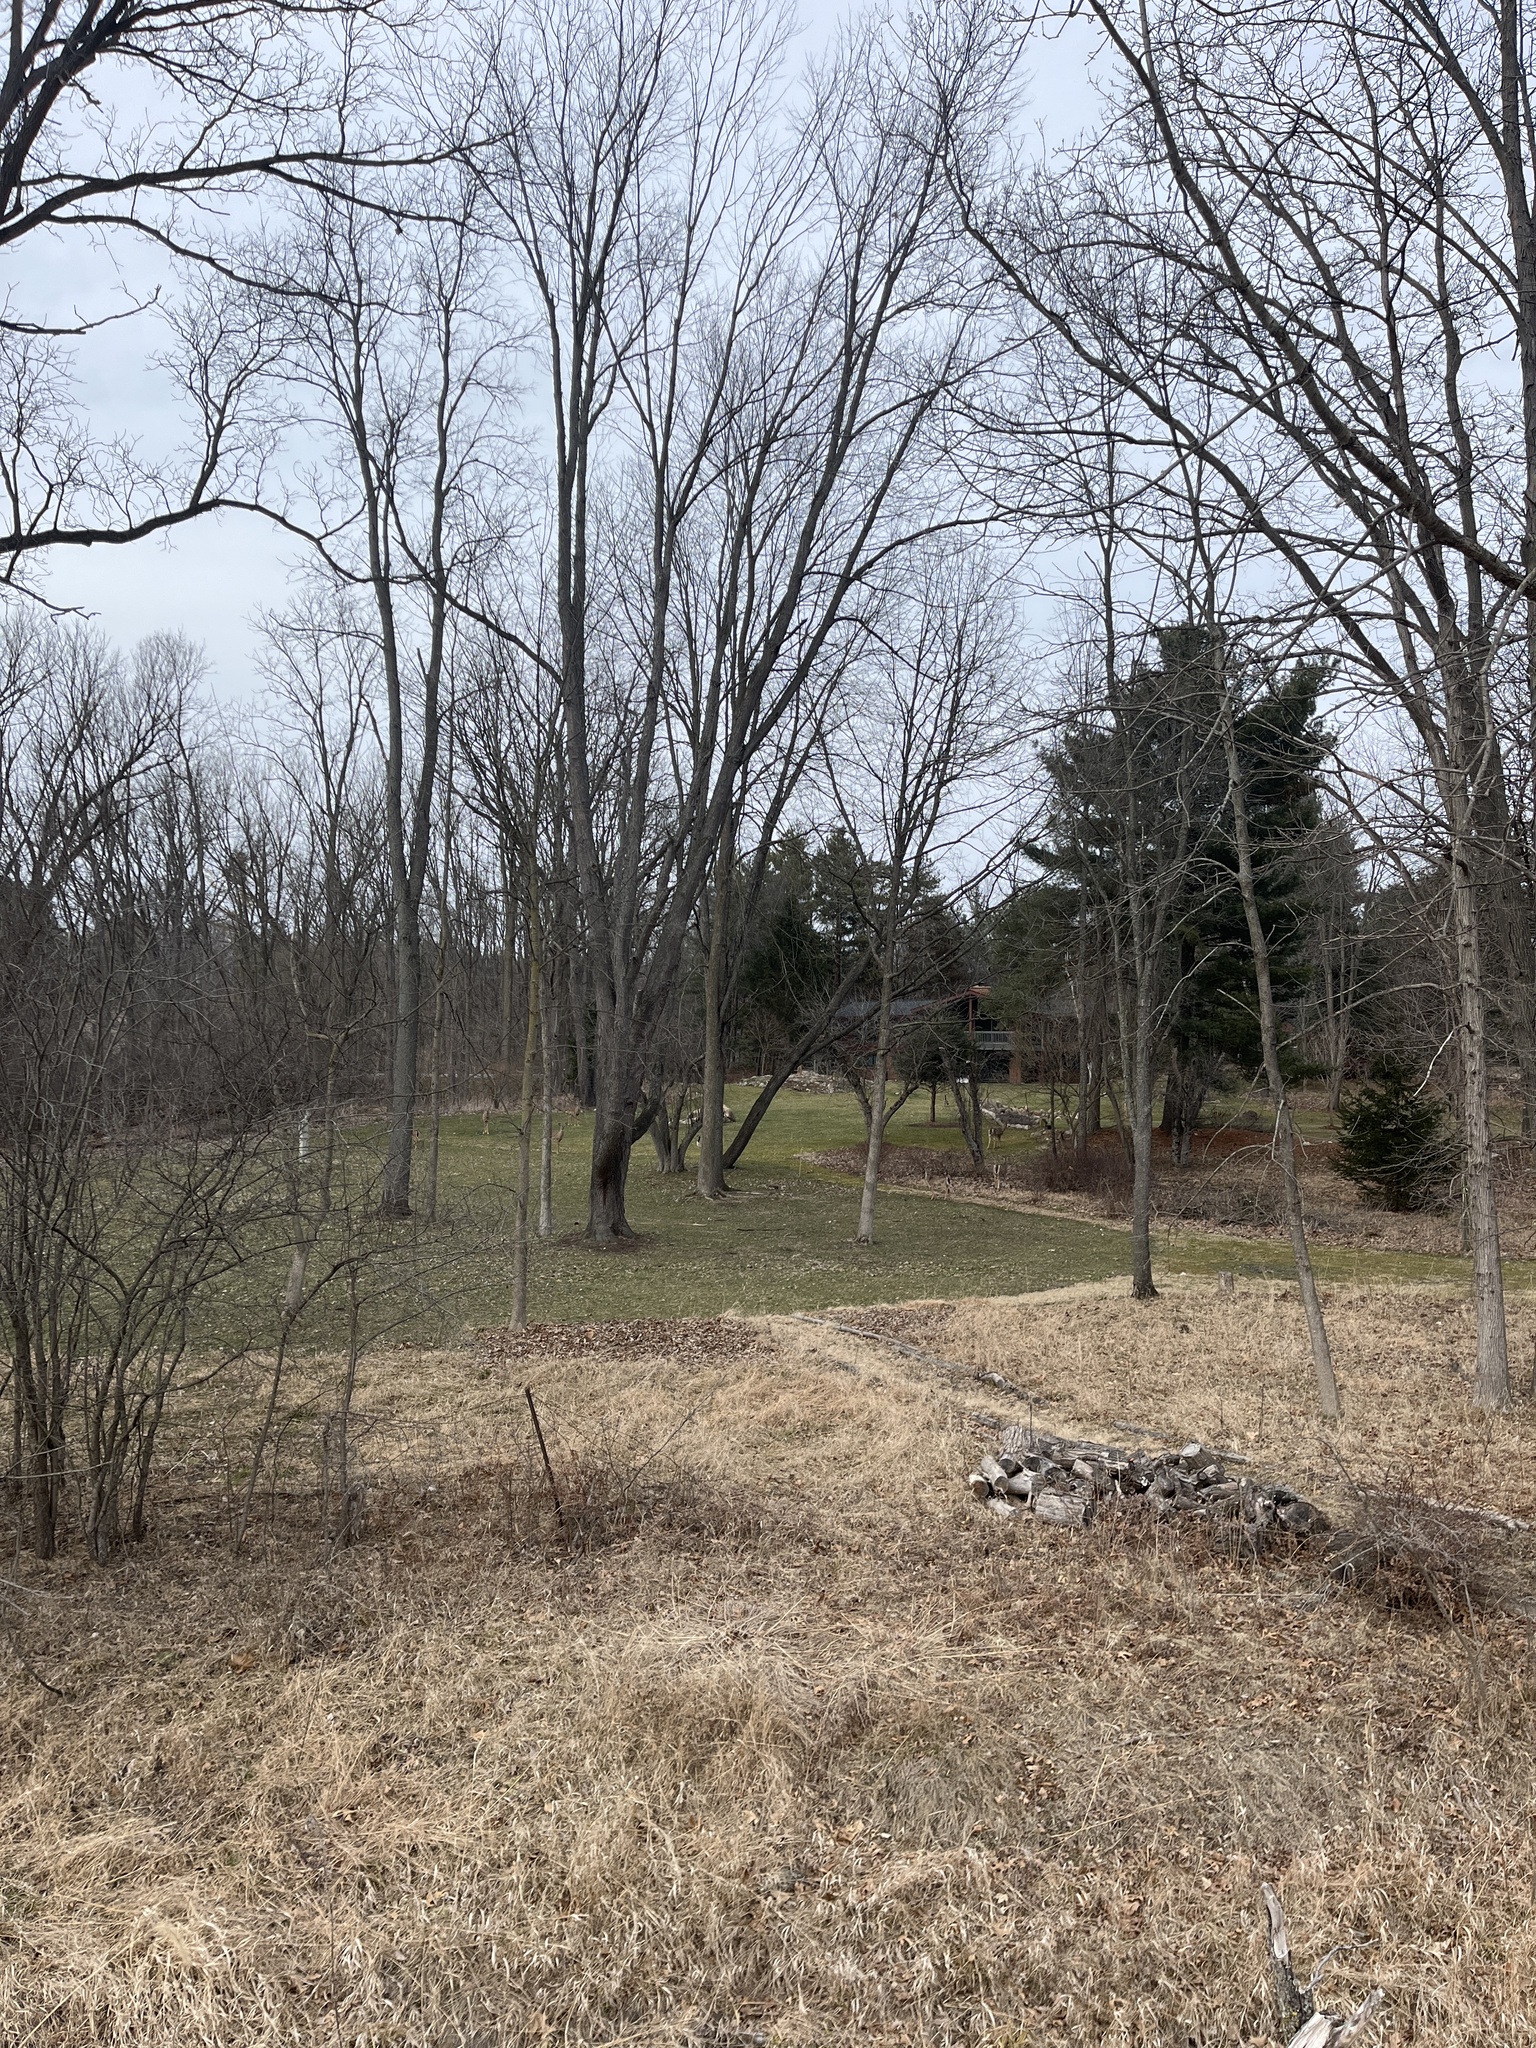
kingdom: Animalia
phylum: Chordata
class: Mammalia
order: Artiodactyla
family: Cervidae
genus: Odocoileus
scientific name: Odocoileus virginianus
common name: White-tailed deer
